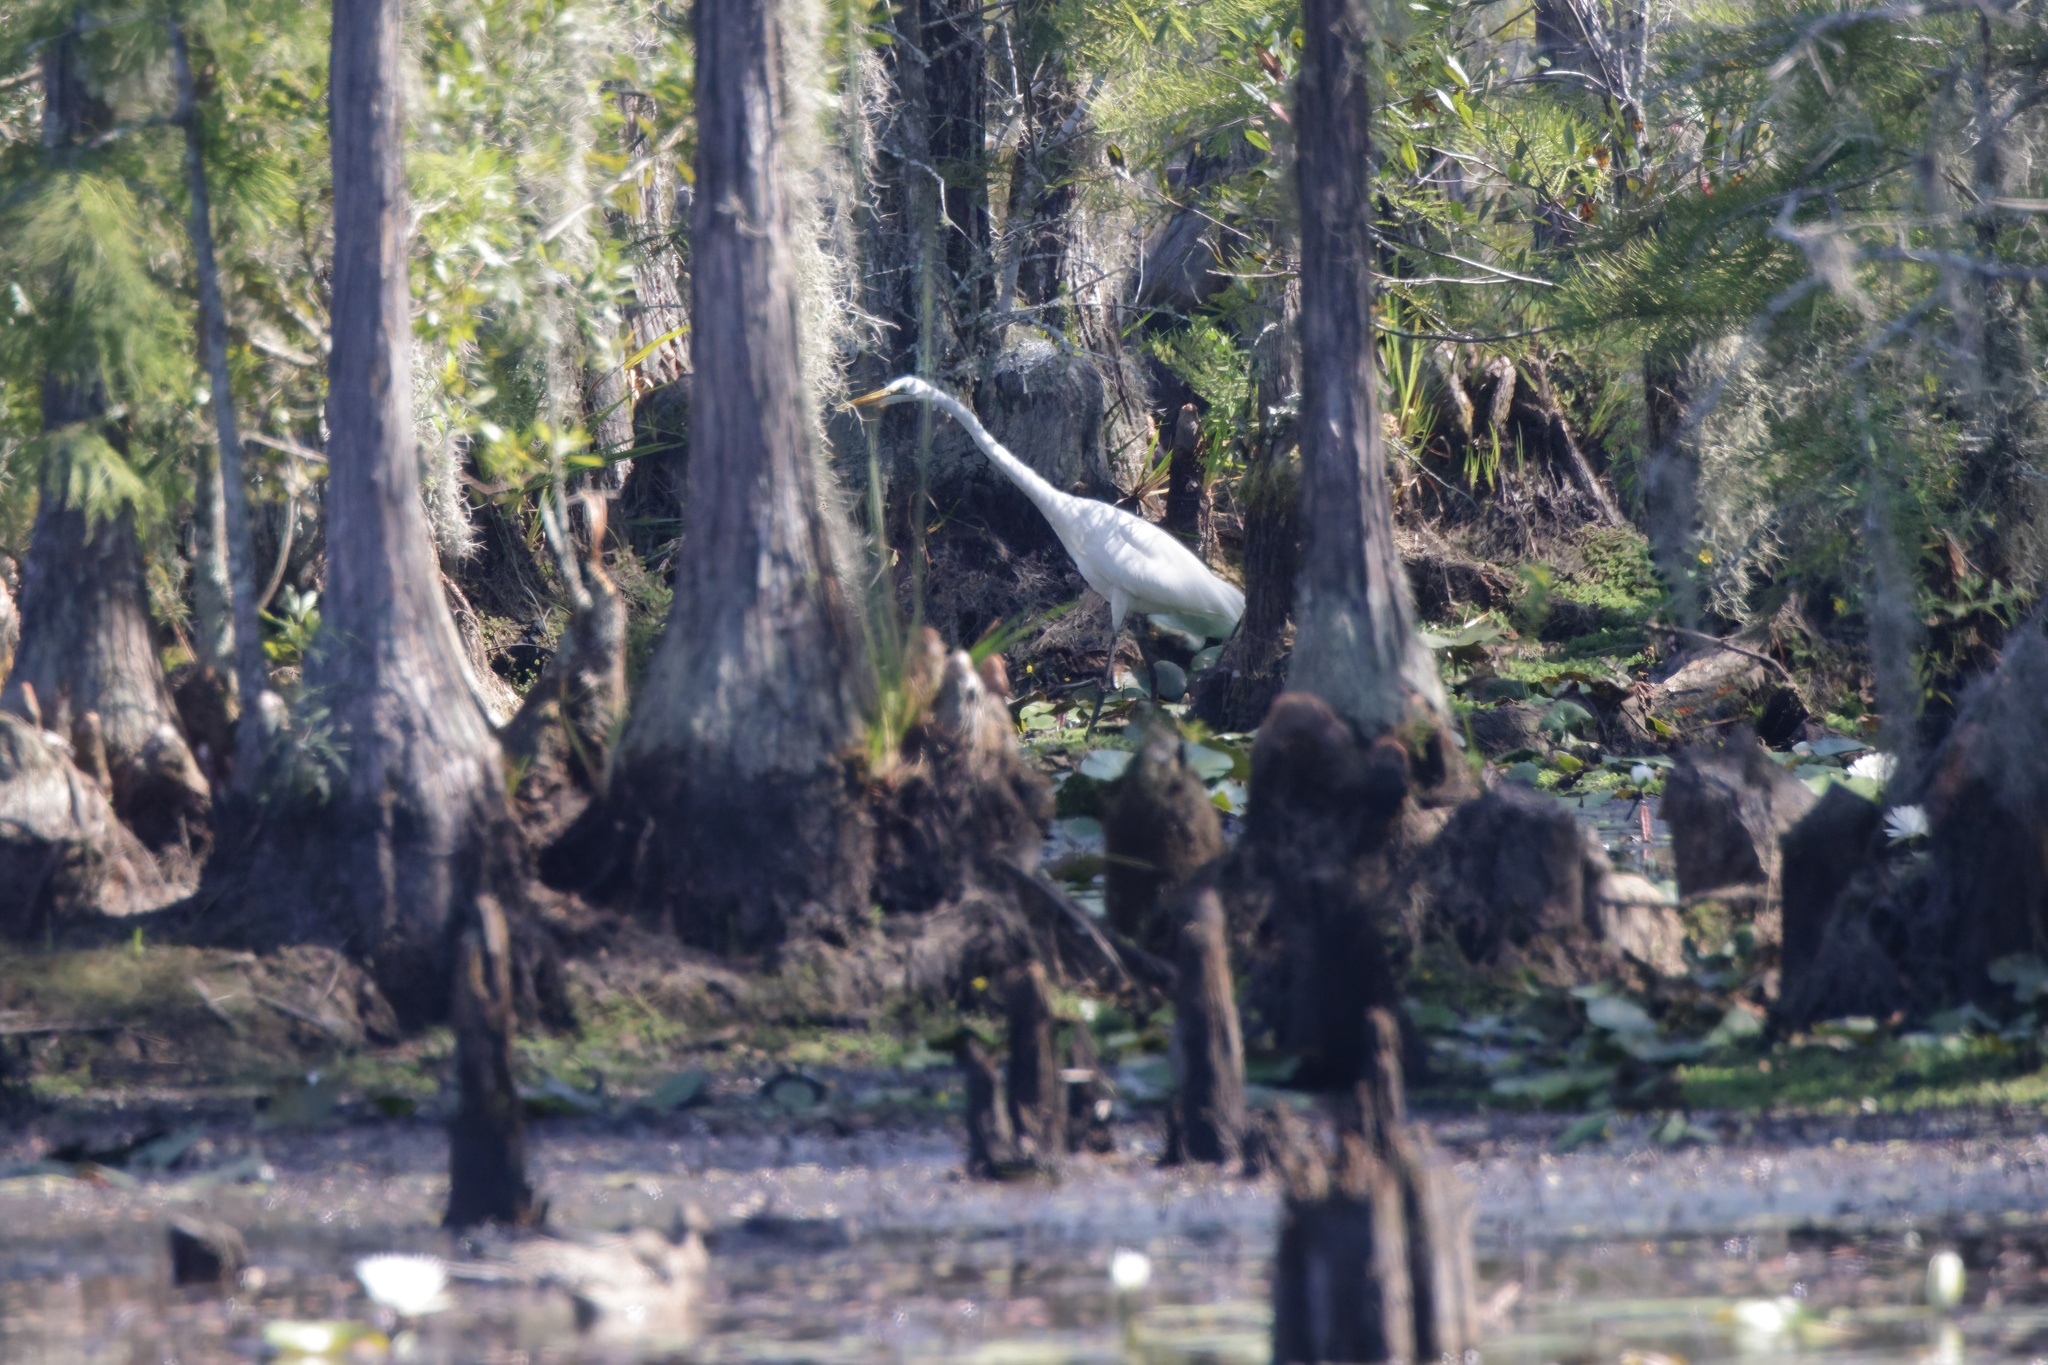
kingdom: Animalia
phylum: Chordata
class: Aves
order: Pelecaniformes
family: Ardeidae
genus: Ardea
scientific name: Ardea alba
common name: Great egret
